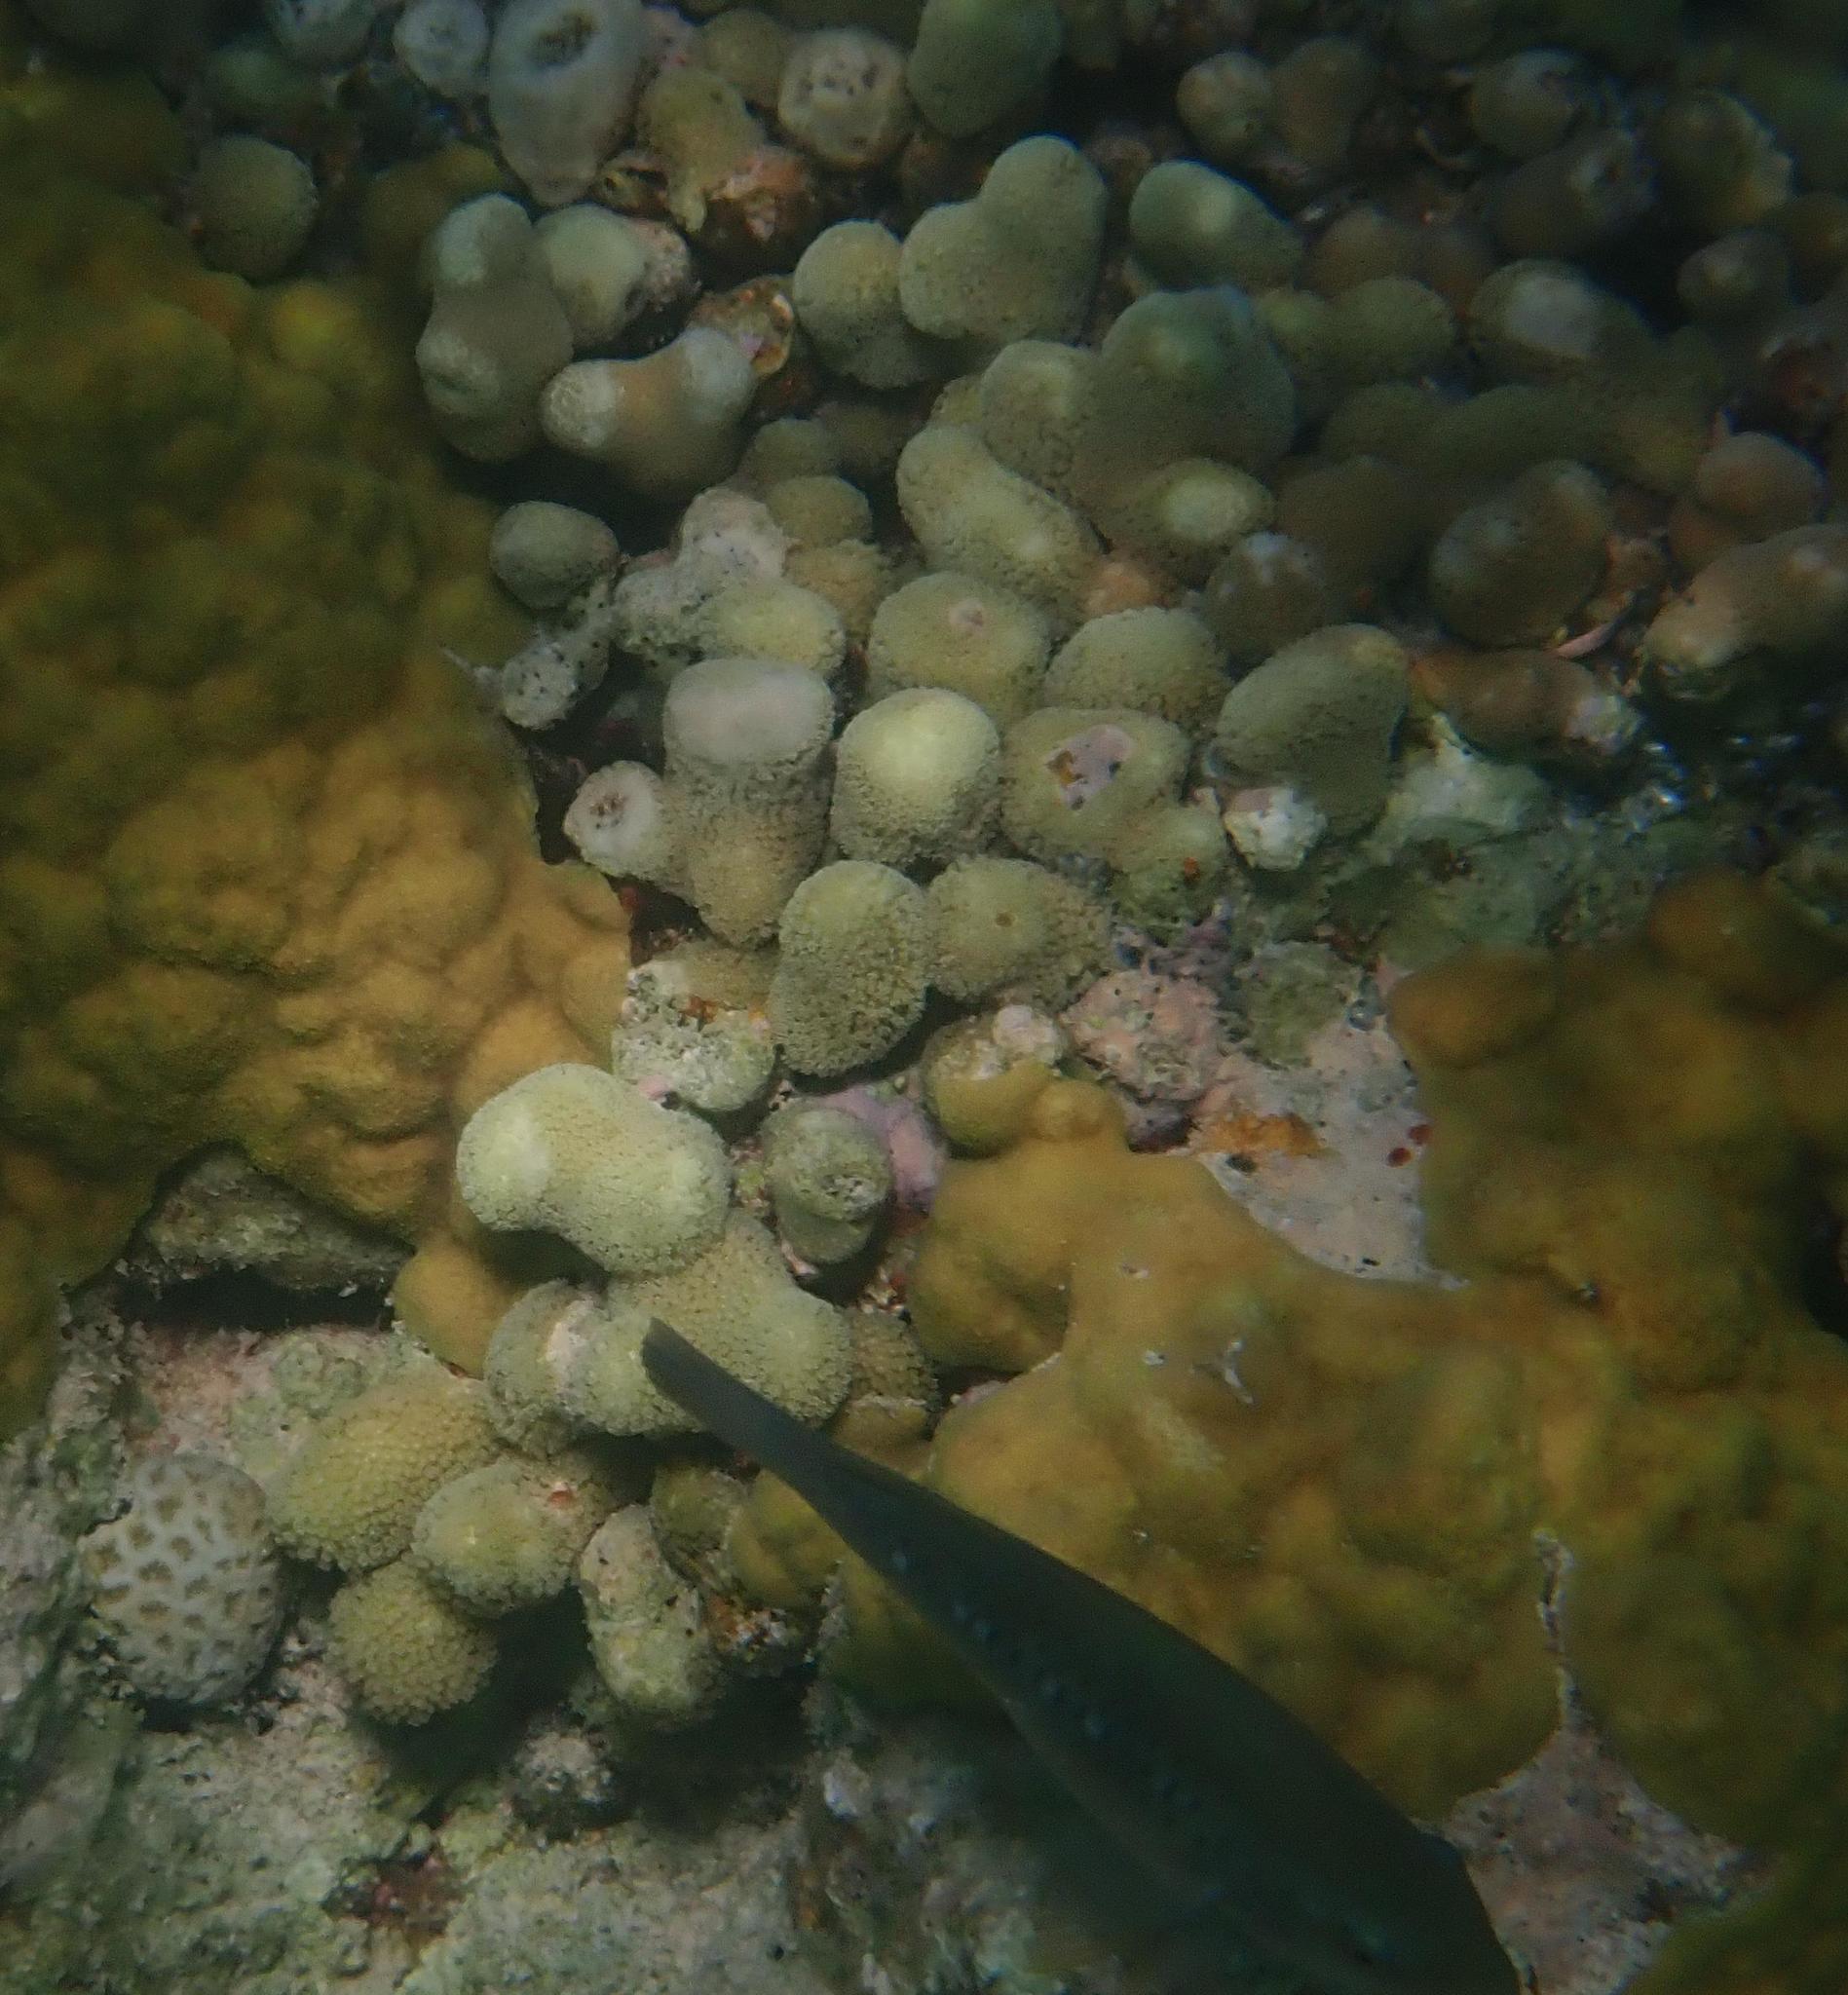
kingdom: Animalia
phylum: Cnidaria
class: Anthozoa
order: Scleractinia
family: Poritidae
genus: Porites
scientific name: Porites porites
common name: Finger coral
